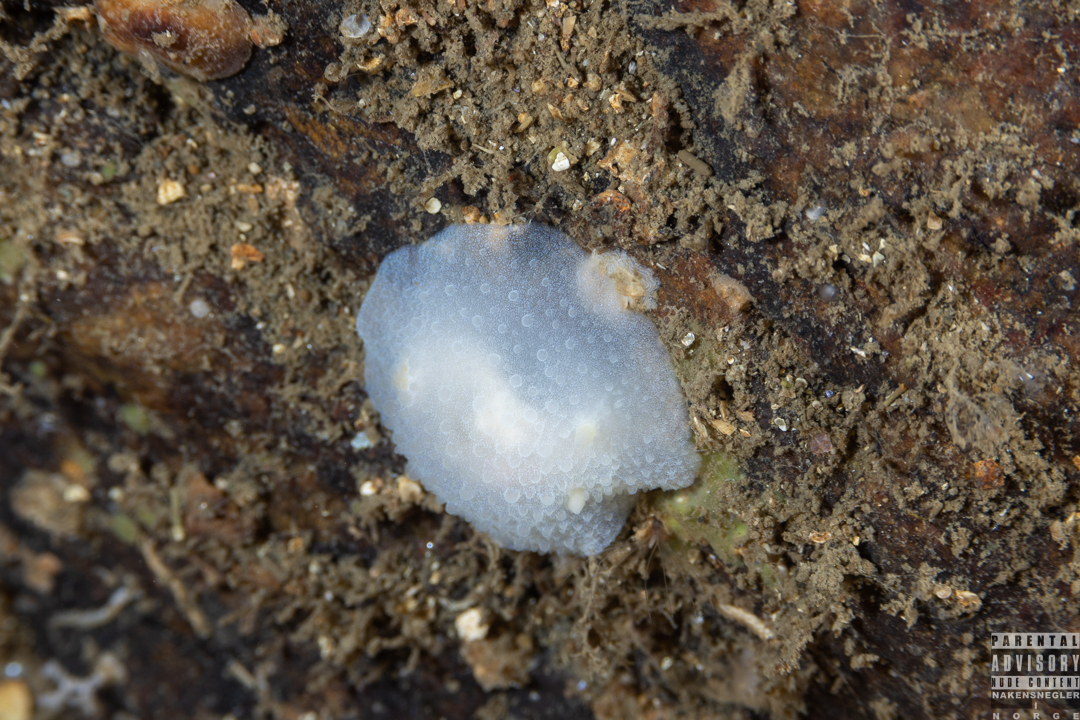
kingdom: Animalia
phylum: Mollusca
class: Gastropoda
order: Nudibranchia
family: Cadlinidae
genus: Aldisa
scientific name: Aldisa zetlandica
